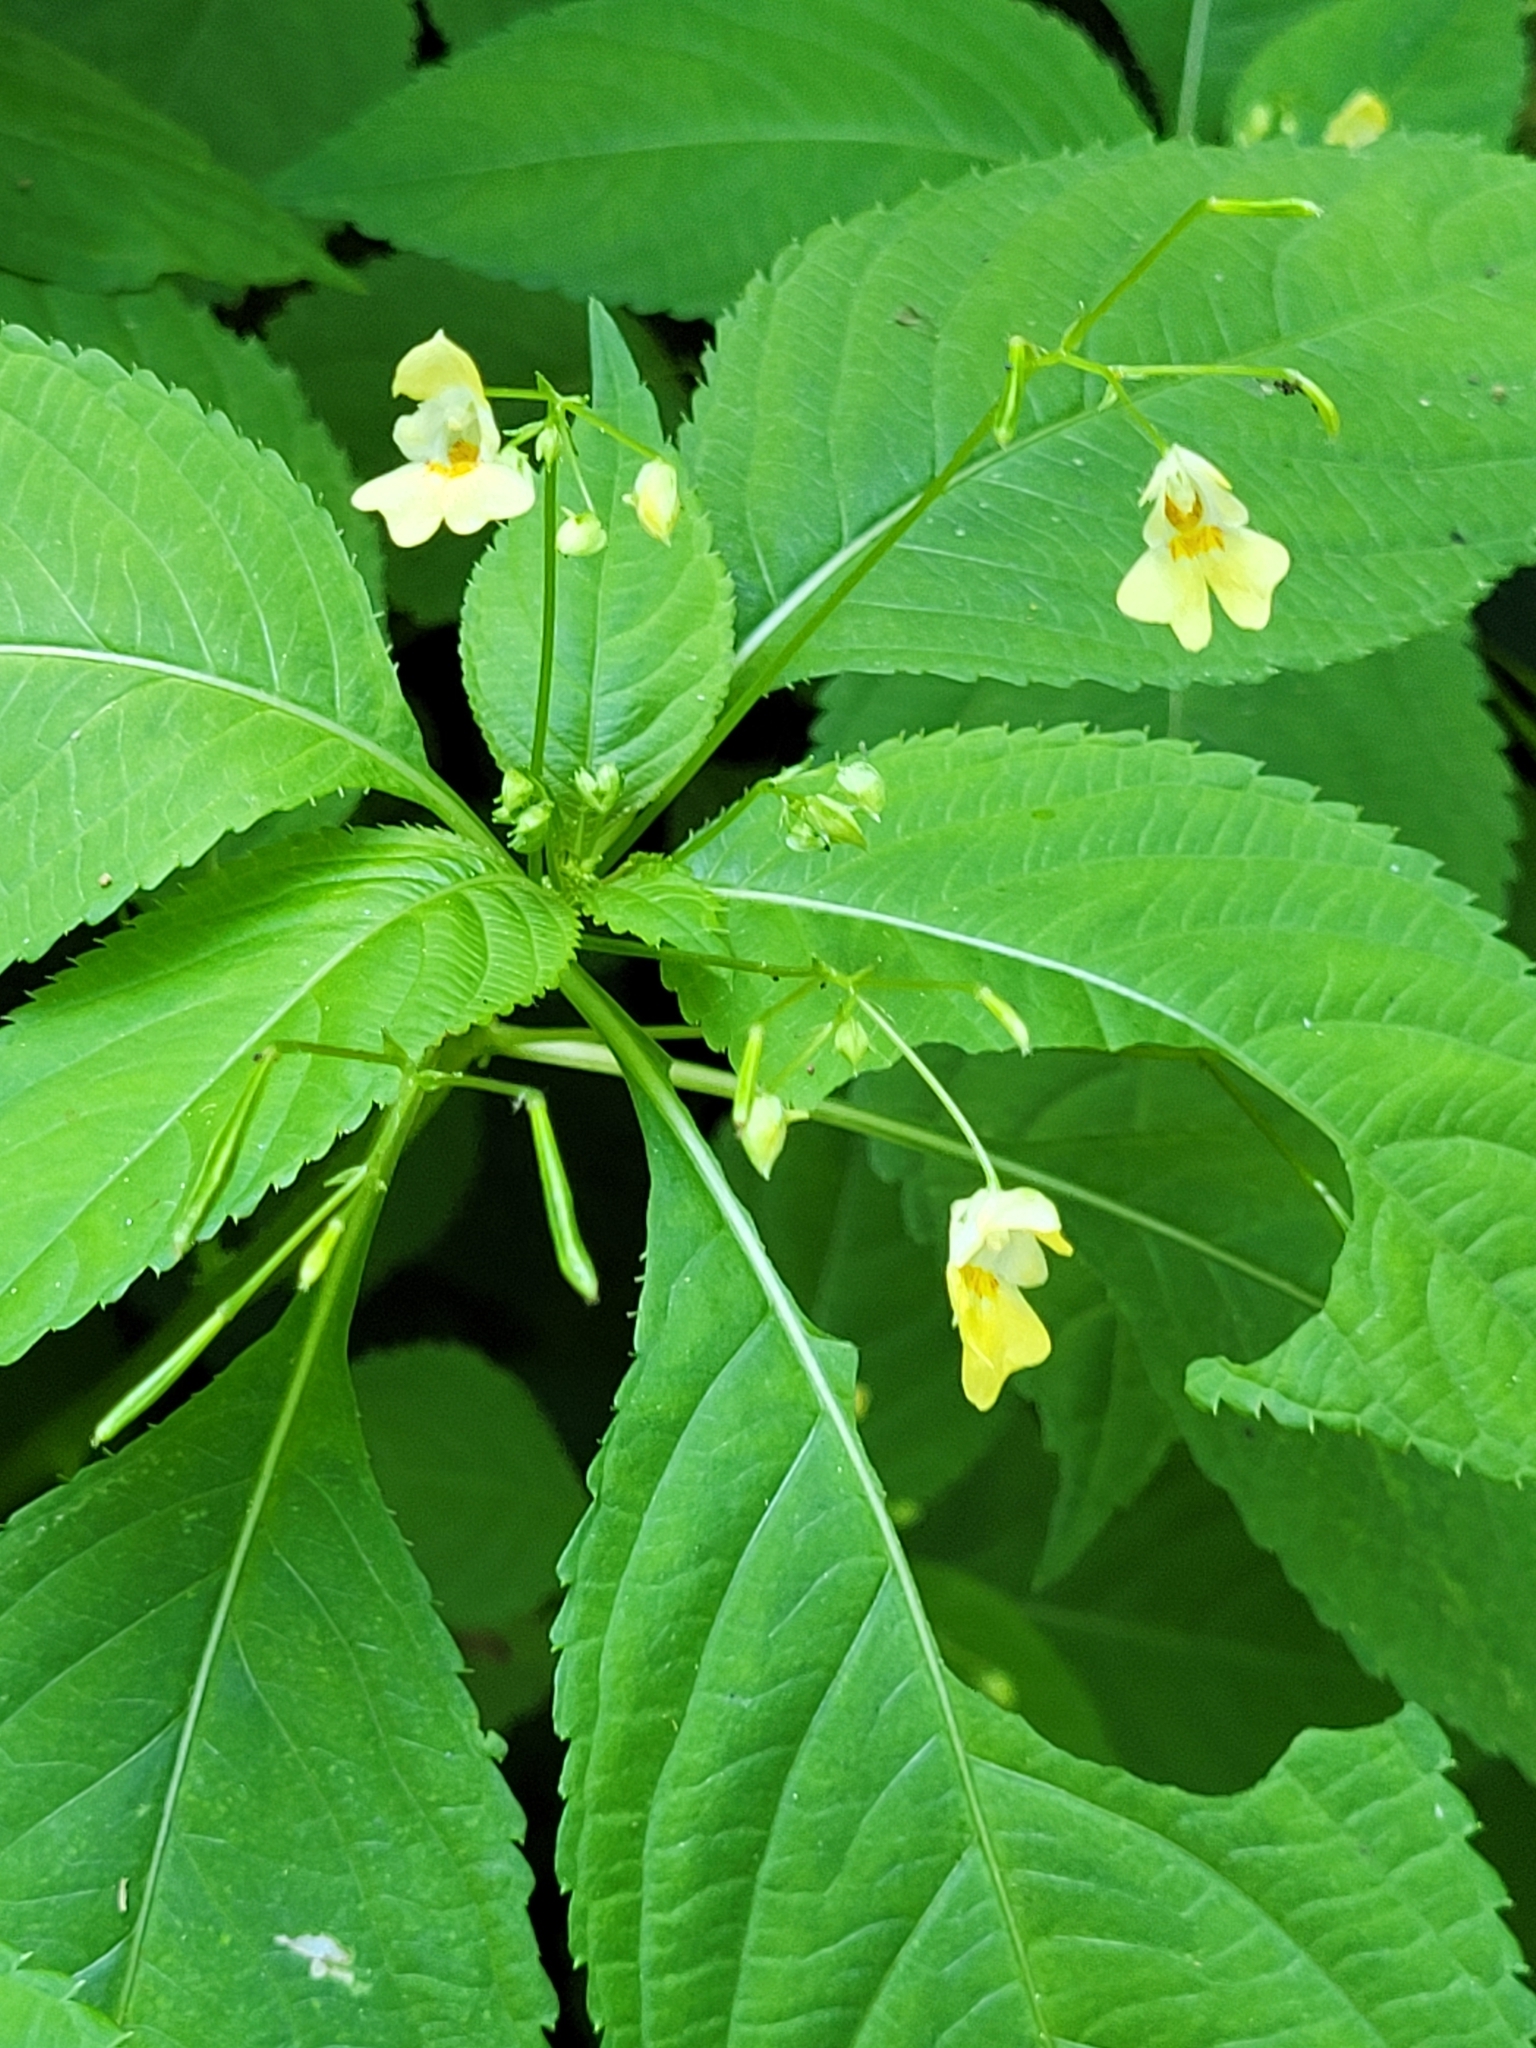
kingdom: Plantae
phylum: Tracheophyta
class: Magnoliopsida
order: Ericales
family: Balsaminaceae
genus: Impatiens
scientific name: Impatiens parviflora
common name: Small balsam
